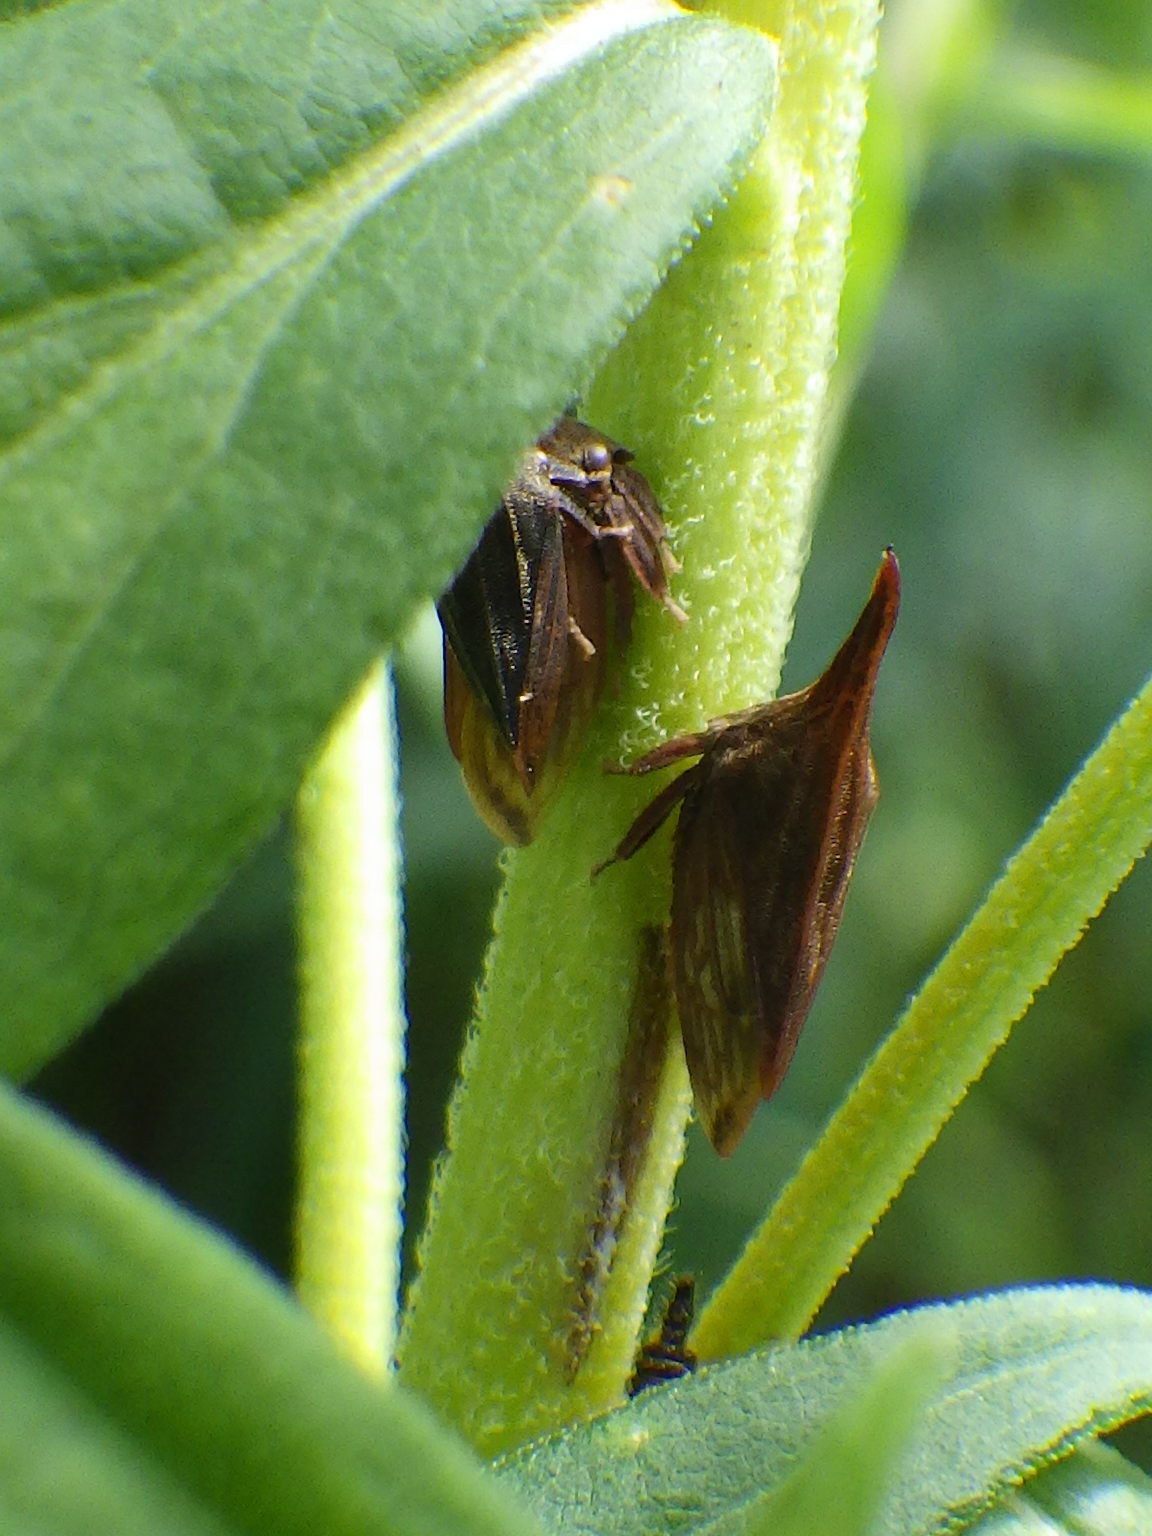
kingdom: Animalia
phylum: Arthropoda
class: Insecta
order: Hemiptera
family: Membracidae
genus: Enchenopa
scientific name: Enchenopa latipes
